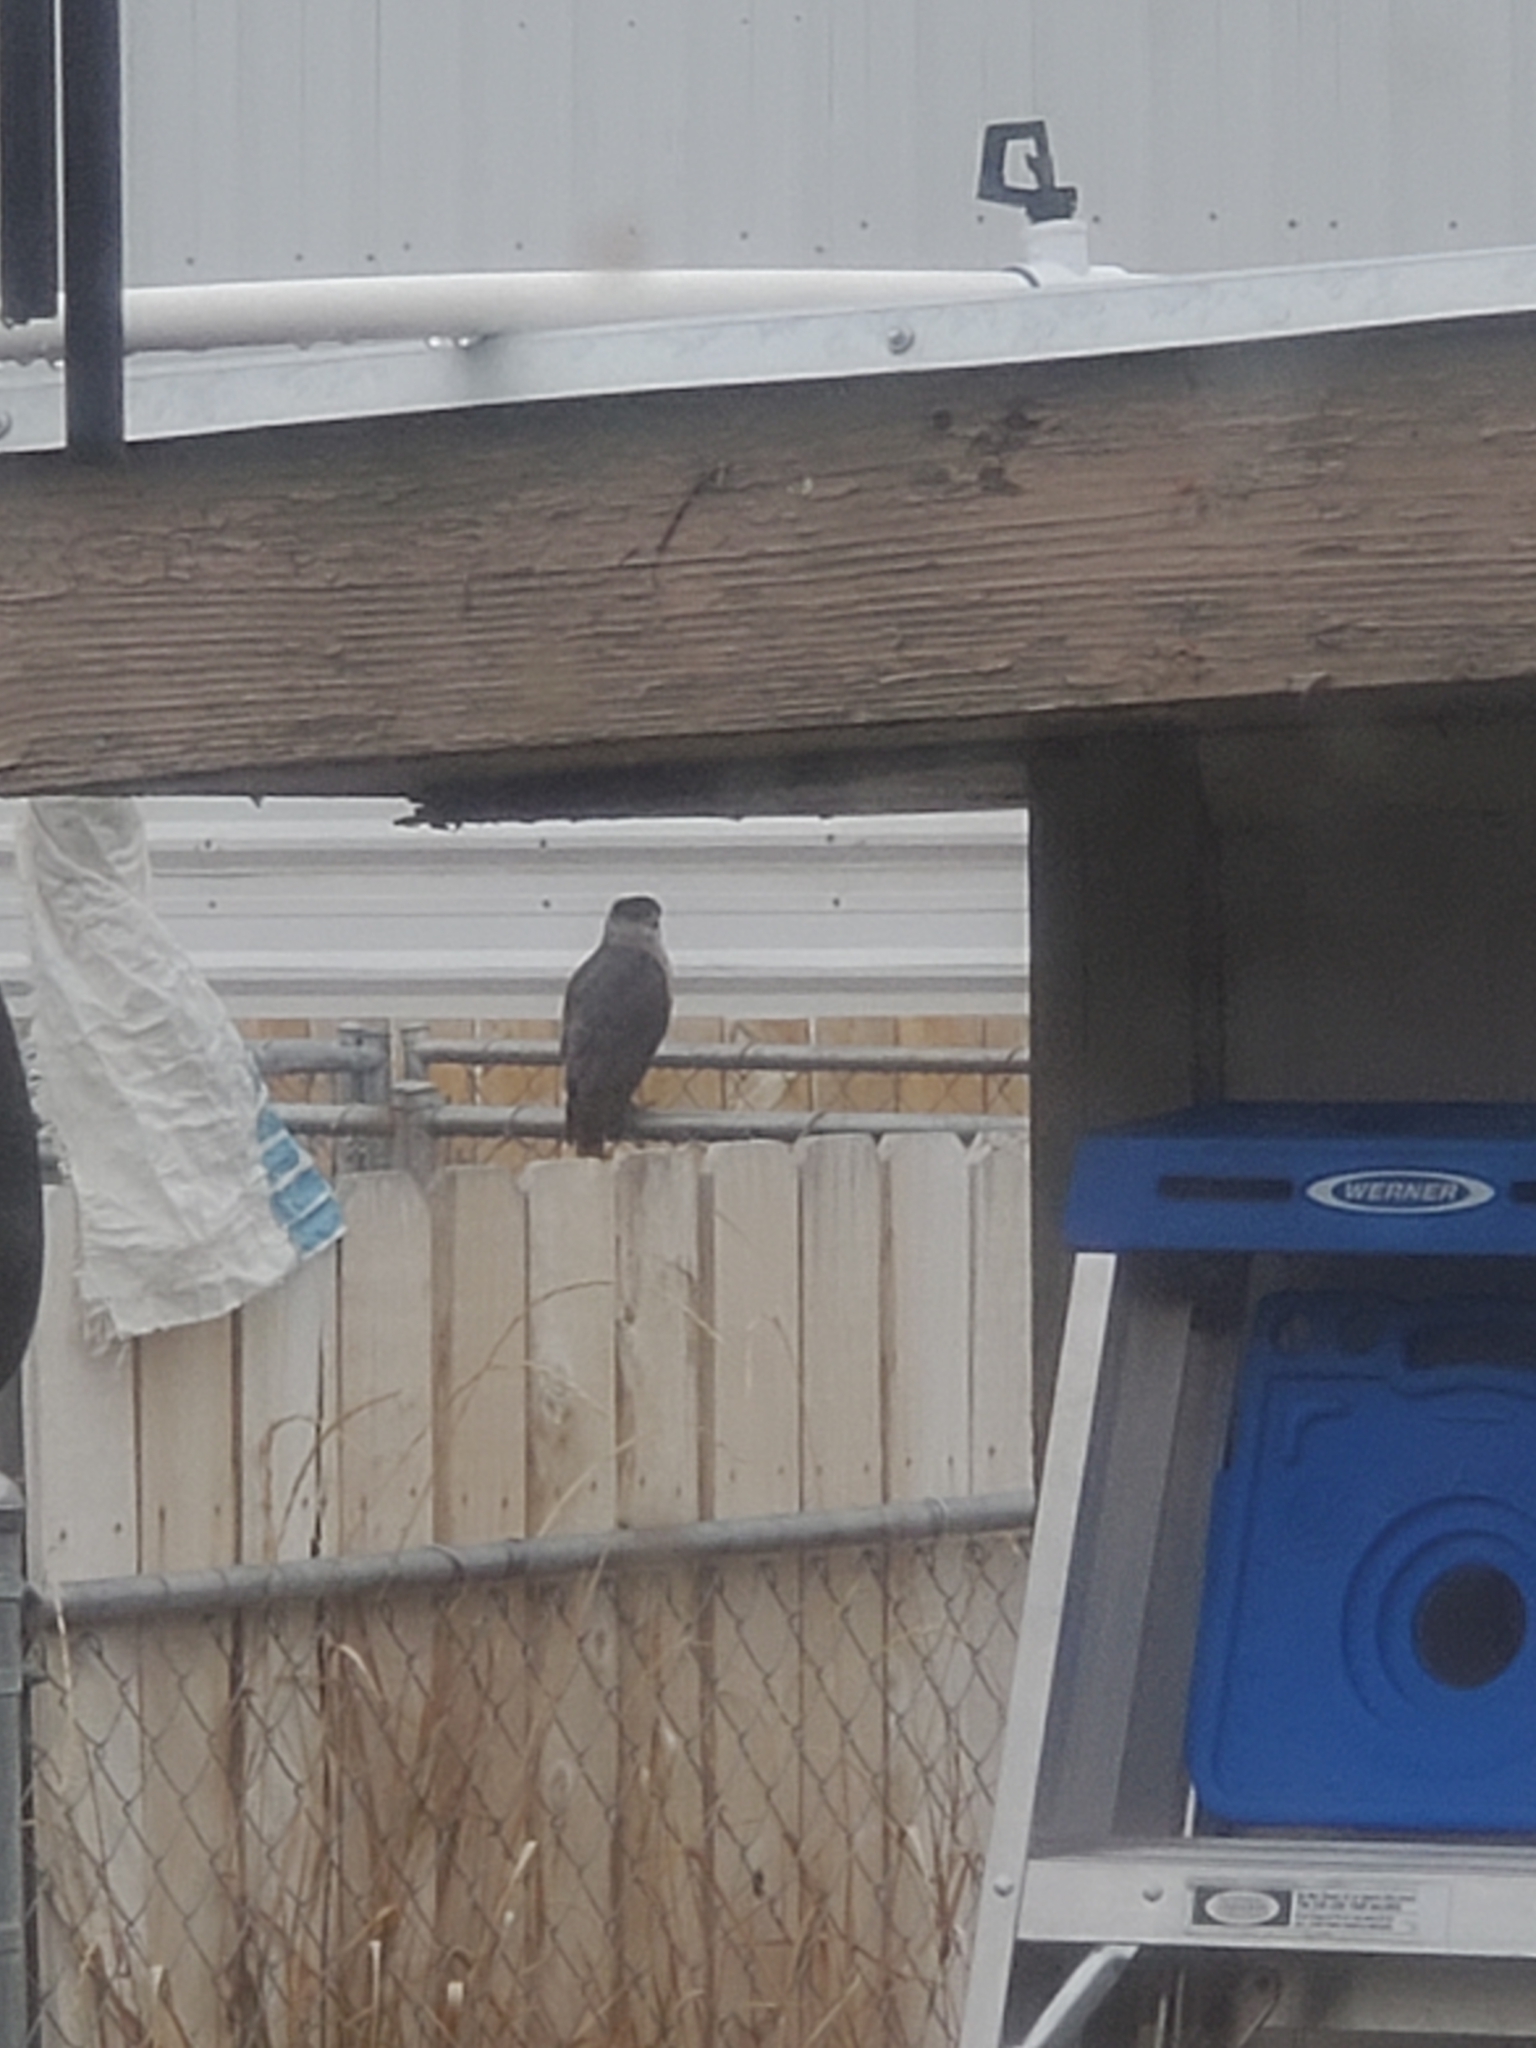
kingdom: Animalia
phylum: Chordata
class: Aves
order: Accipitriformes
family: Accipitridae
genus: Accipiter
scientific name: Accipiter cooperii
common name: Cooper's hawk
